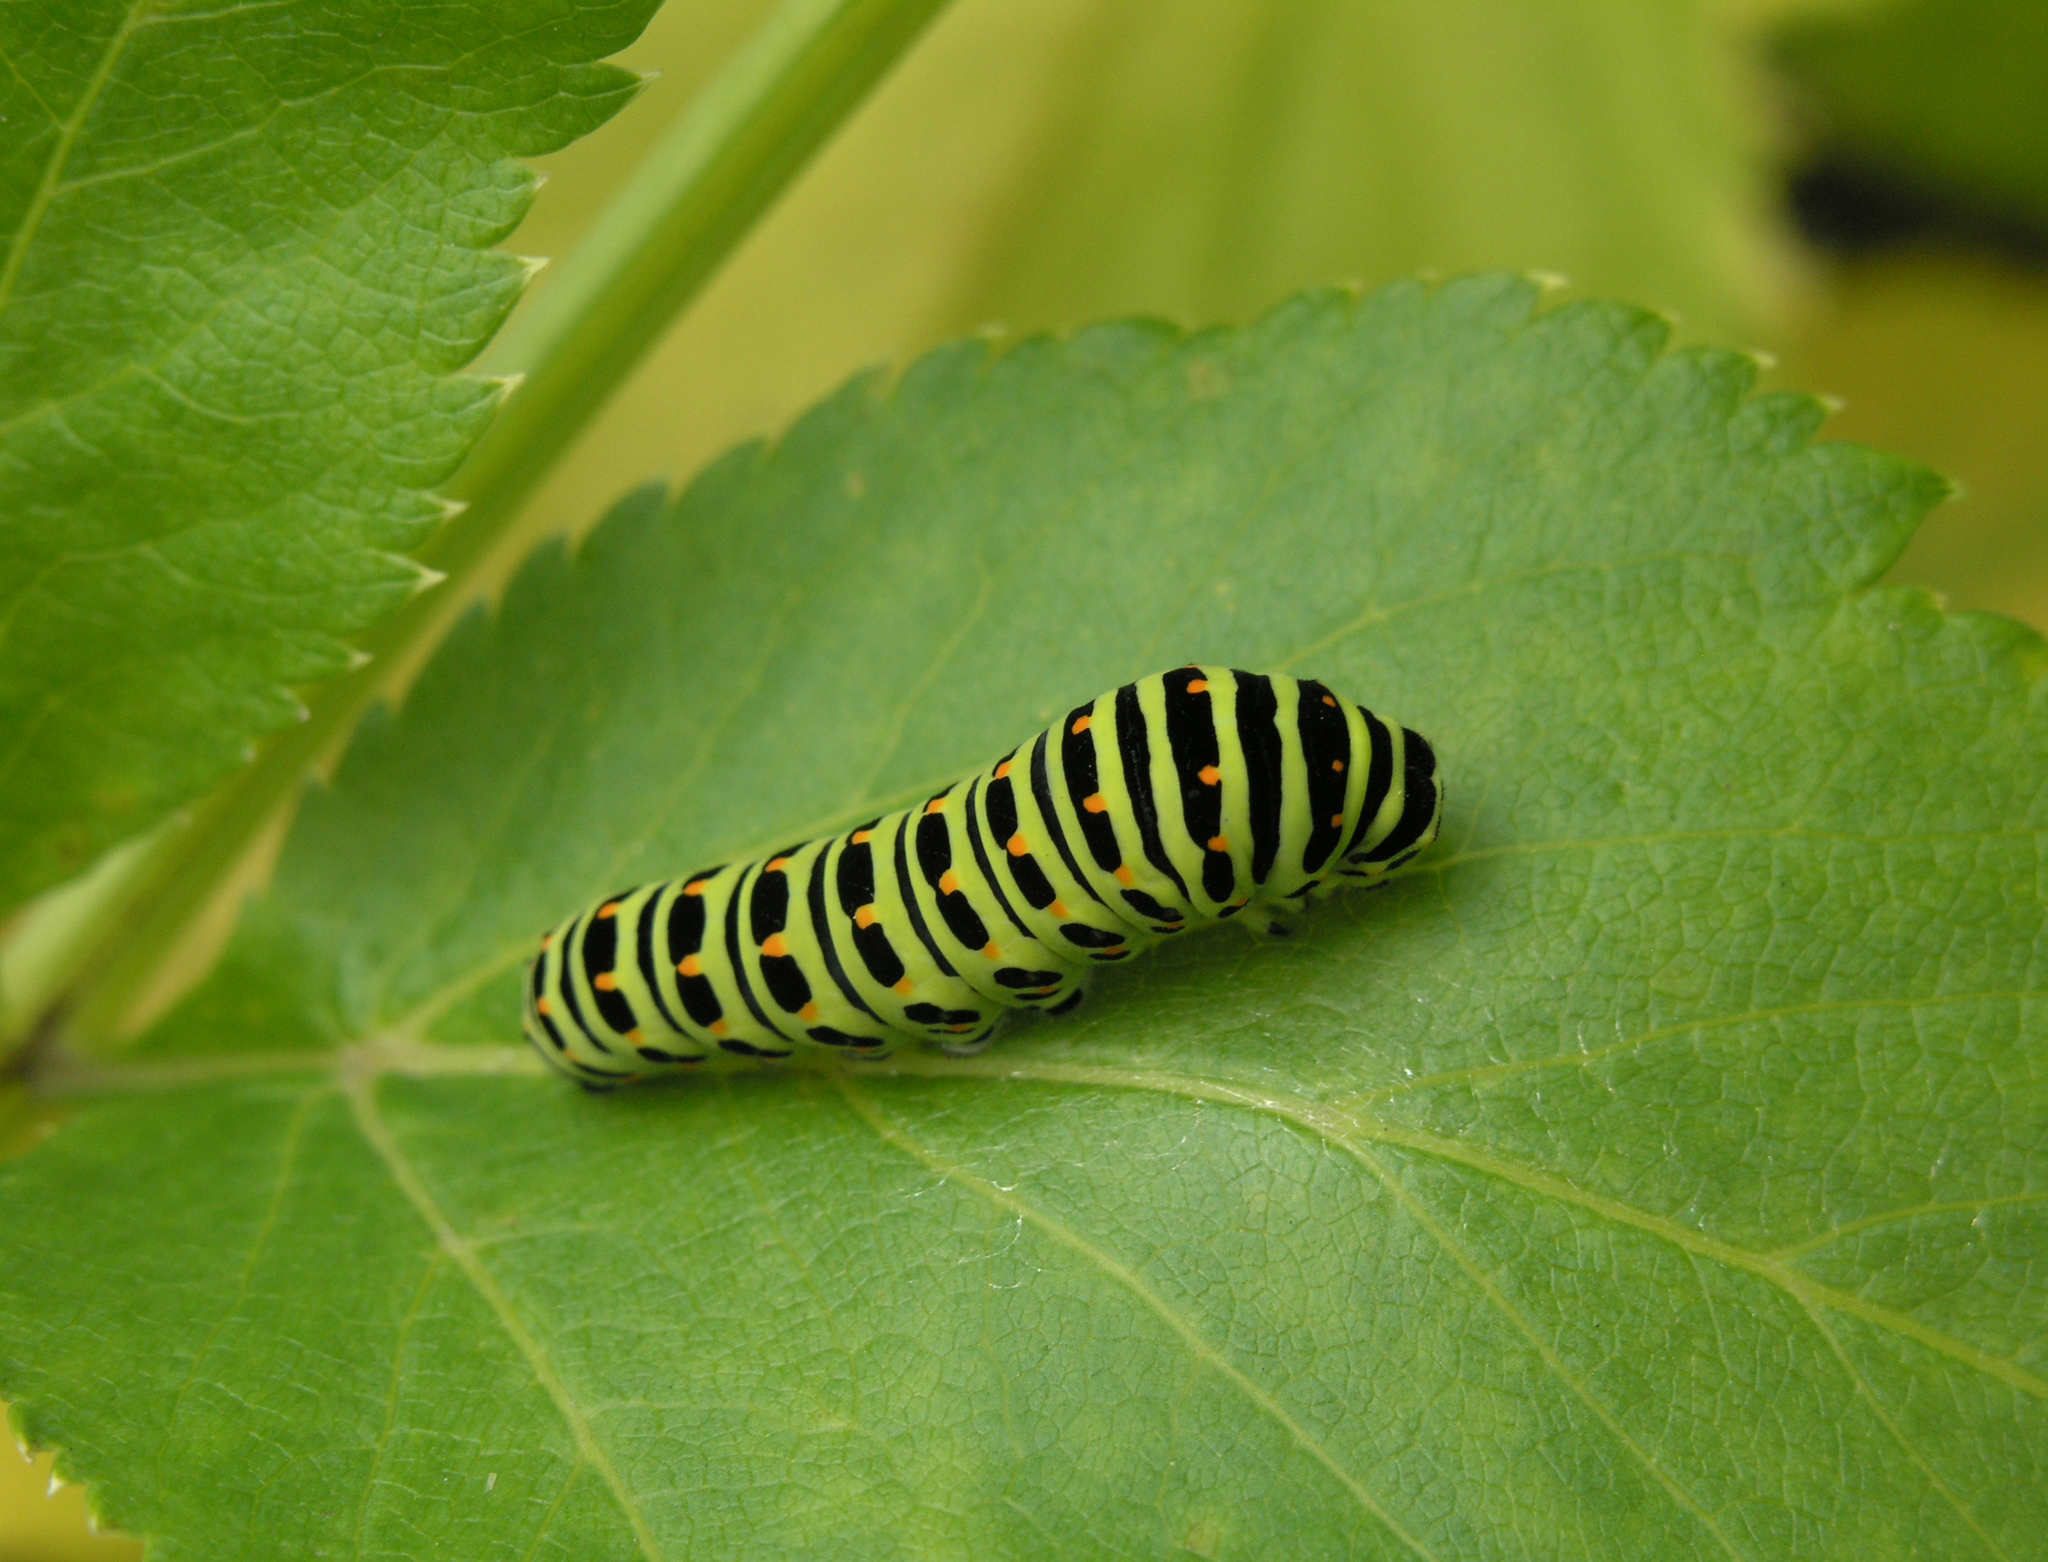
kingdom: Animalia
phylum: Arthropoda
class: Insecta
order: Lepidoptera
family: Papilionidae
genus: Papilio
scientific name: Papilio machaon
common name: Swallowtail
